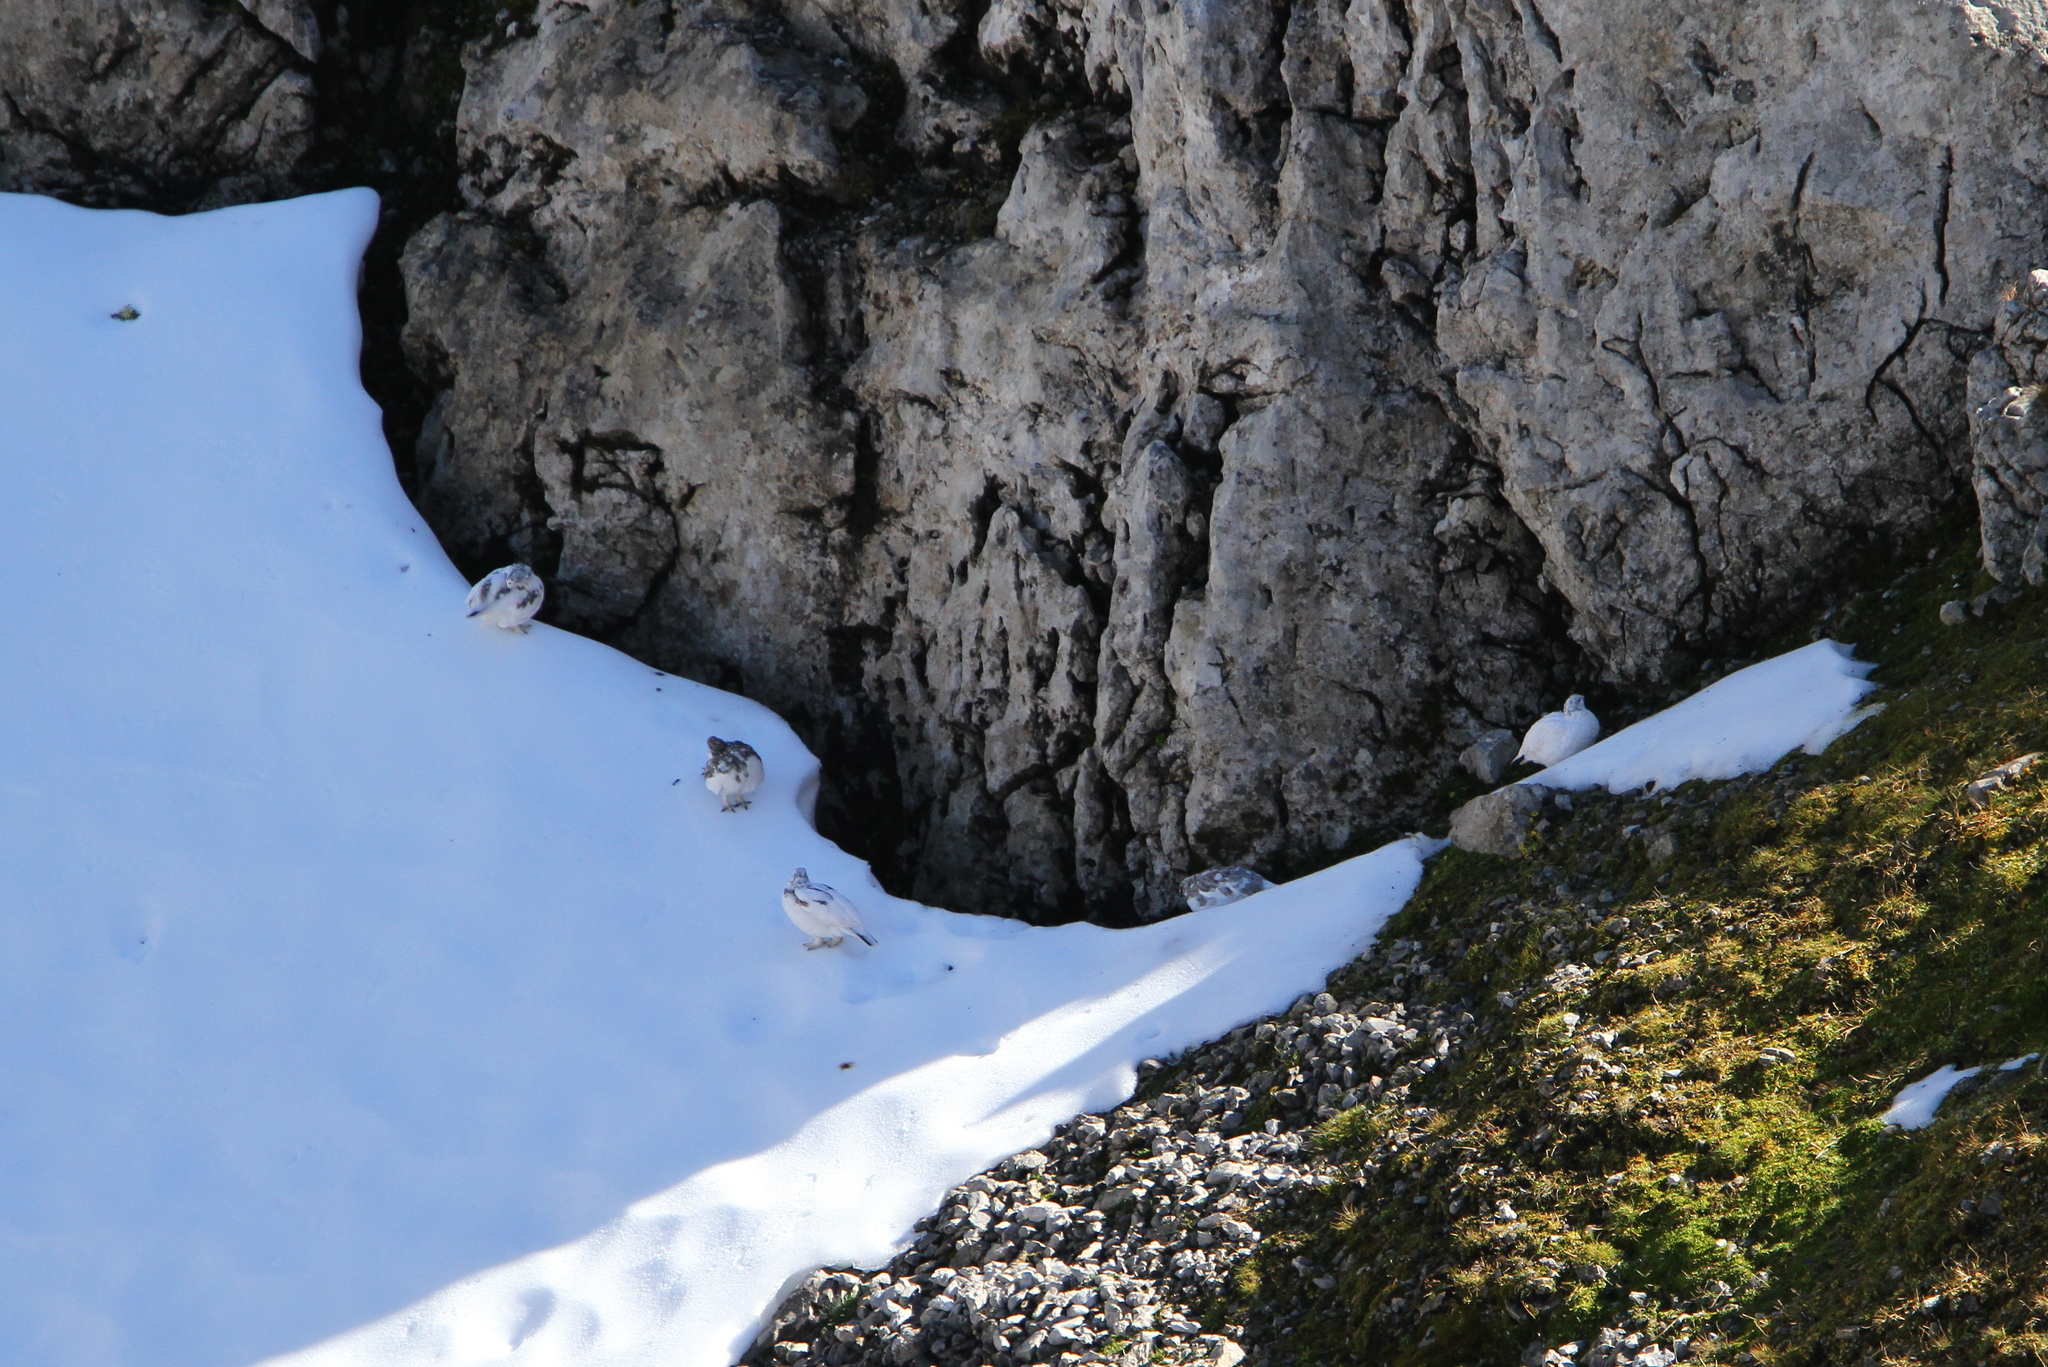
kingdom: Animalia
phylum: Chordata
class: Aves
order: Galliformes
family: Phasianidae
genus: Lagopus
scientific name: Lagopus muta
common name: Rock ptarmigan
